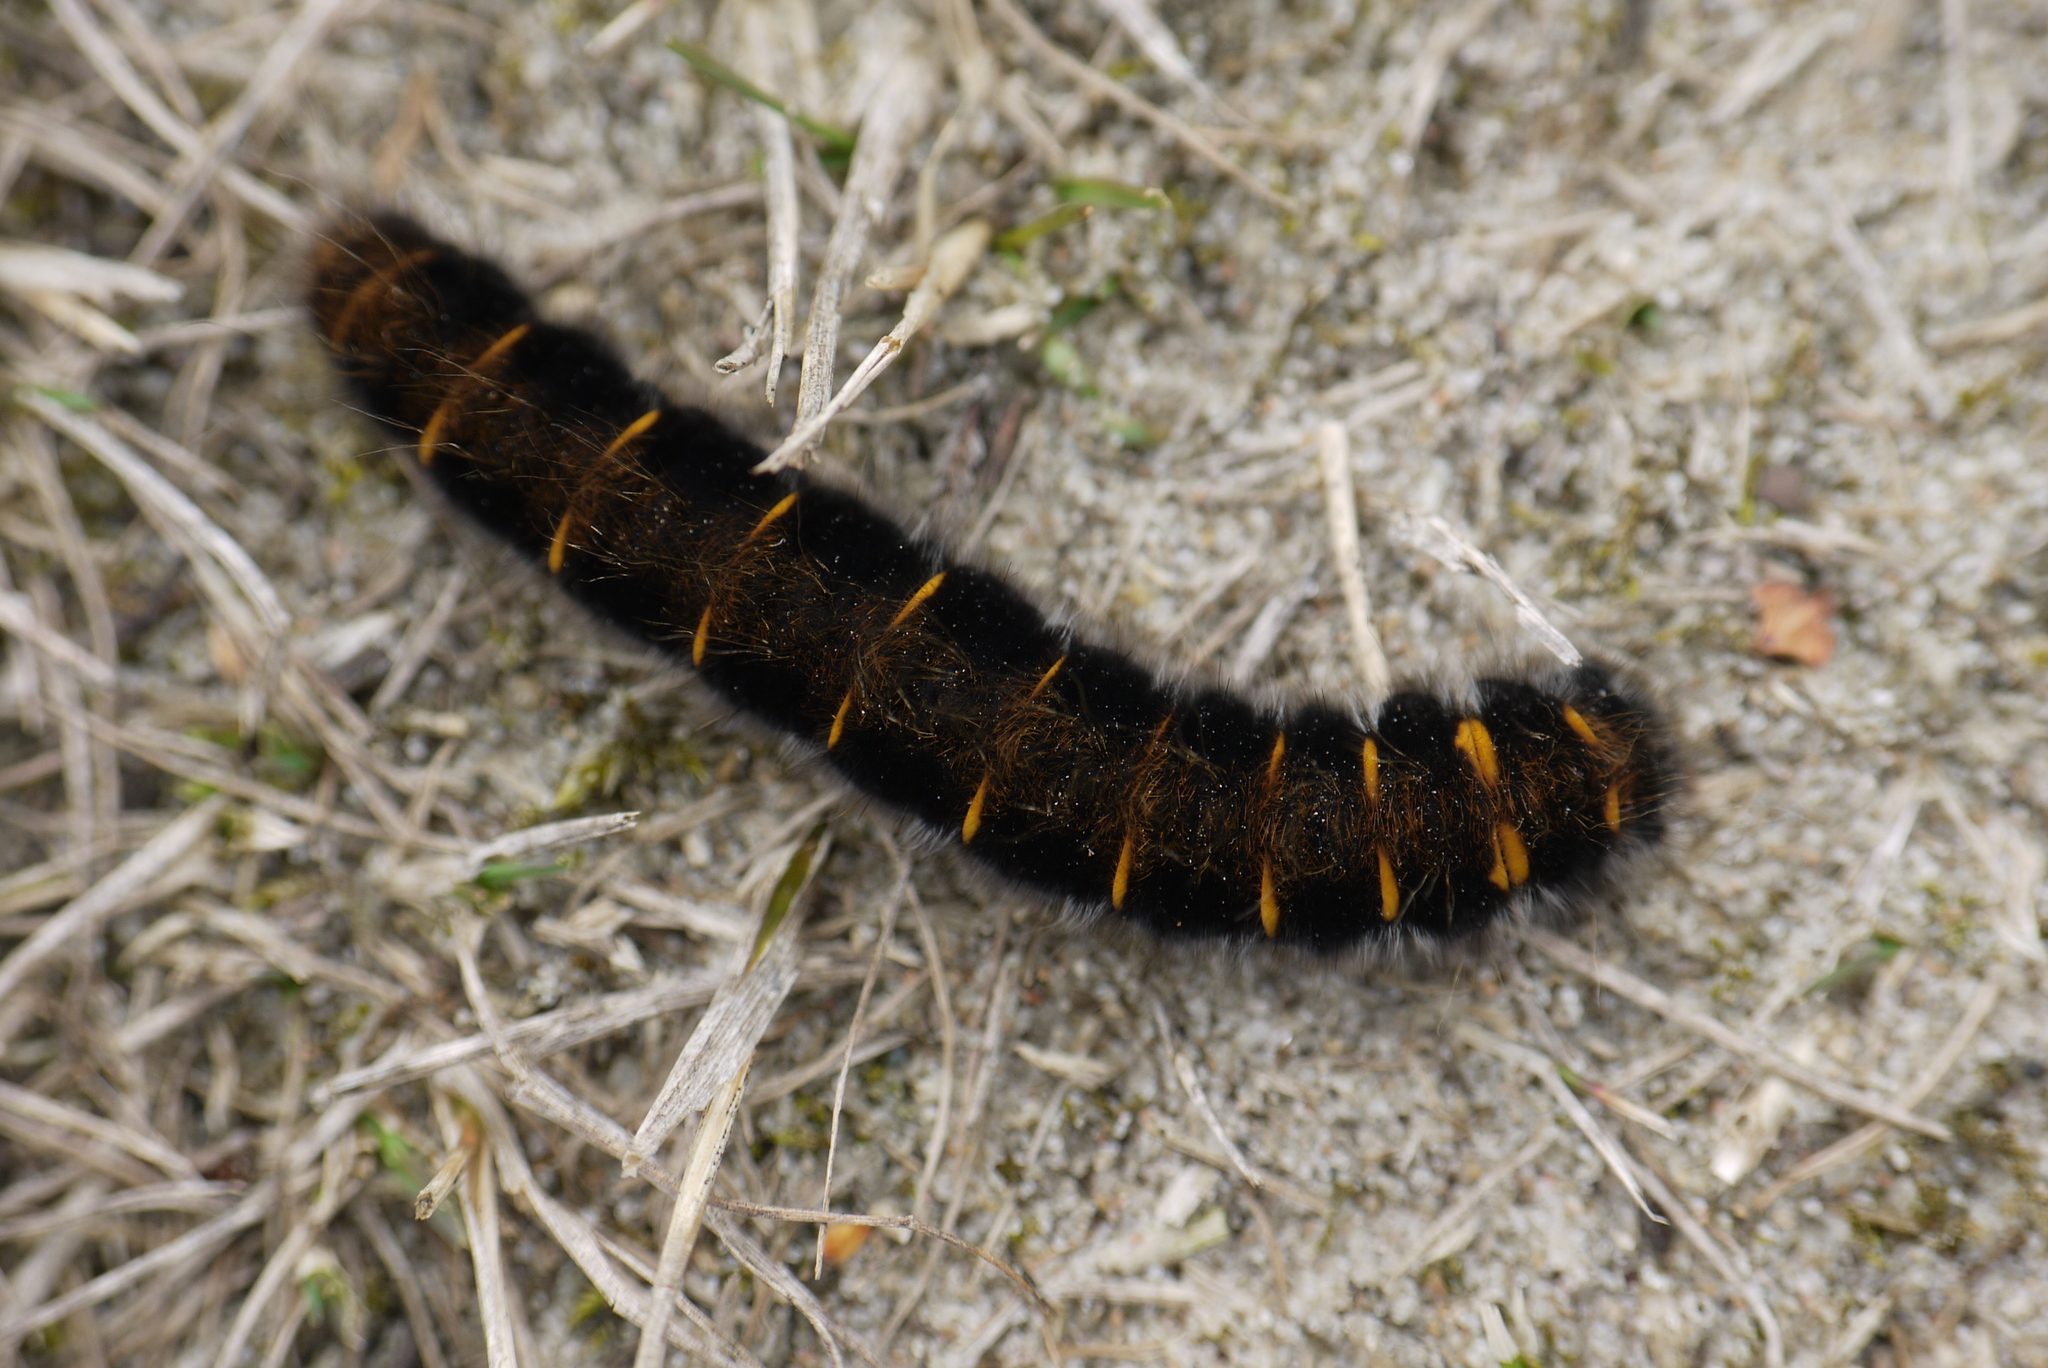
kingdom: Animalia
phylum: Arthropoda
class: Insecta
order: Lepidoptera
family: Lasiocampidae
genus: Macrothylacia
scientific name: Macrothylacia rubi
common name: Fox moth
